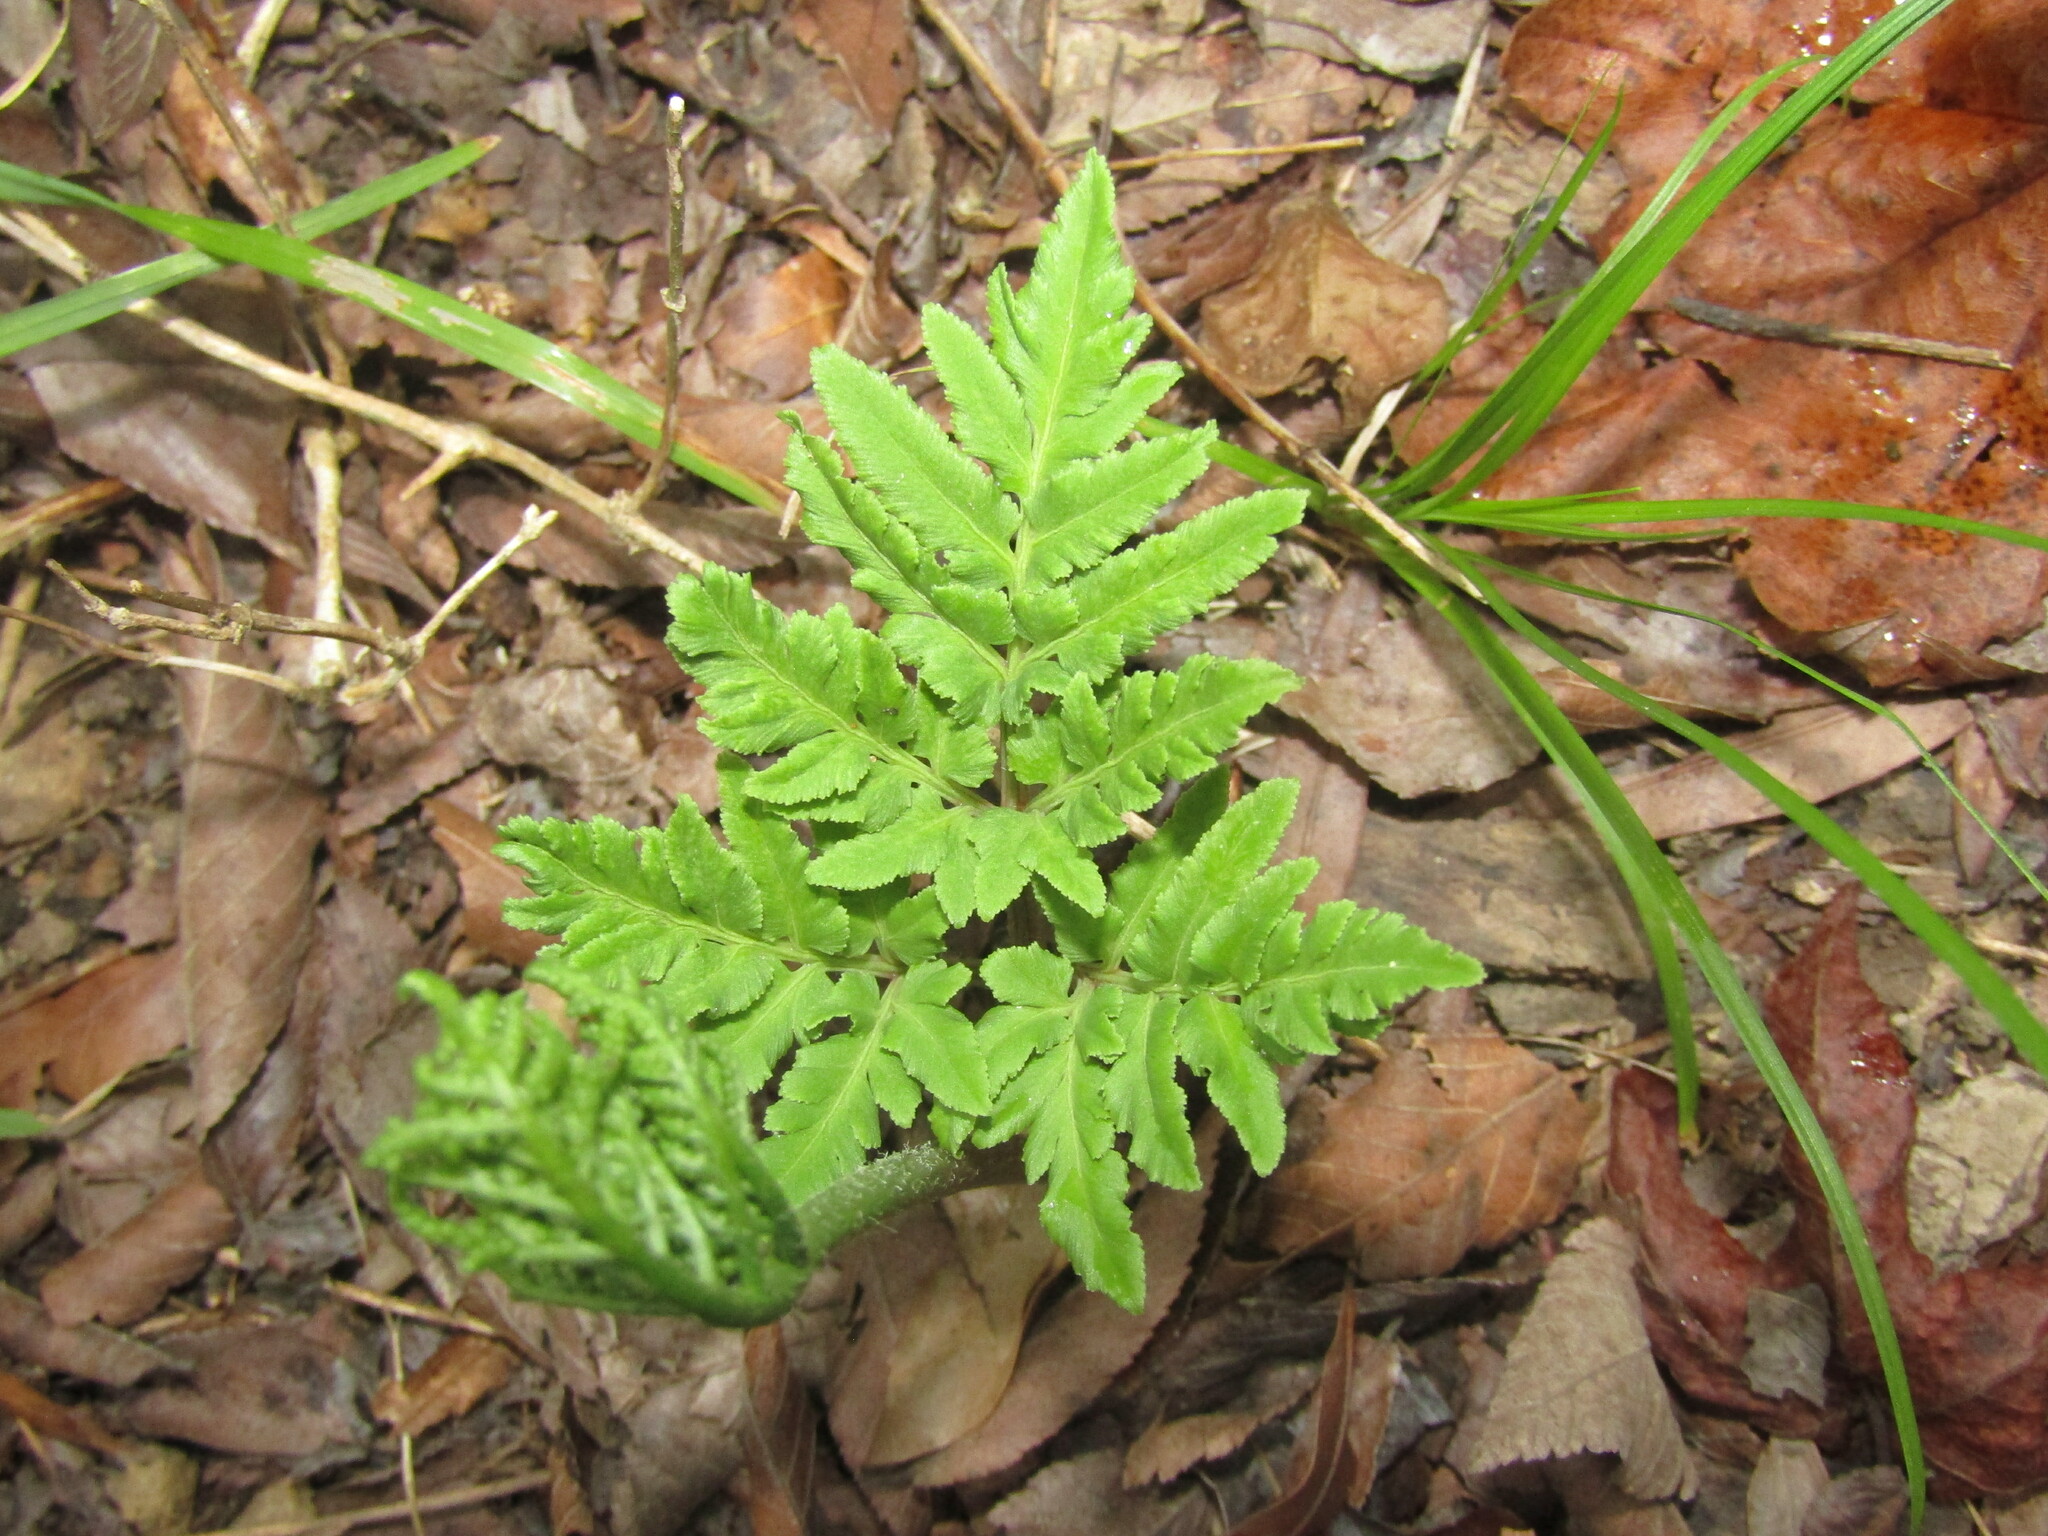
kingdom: Plantae
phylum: Tracheophyta
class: Polypodiopsida
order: Ophioglossales
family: Ophioglossaceae
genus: Sceptridium
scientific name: Sceptridium dissectum
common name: Cut-leaved grapefern
